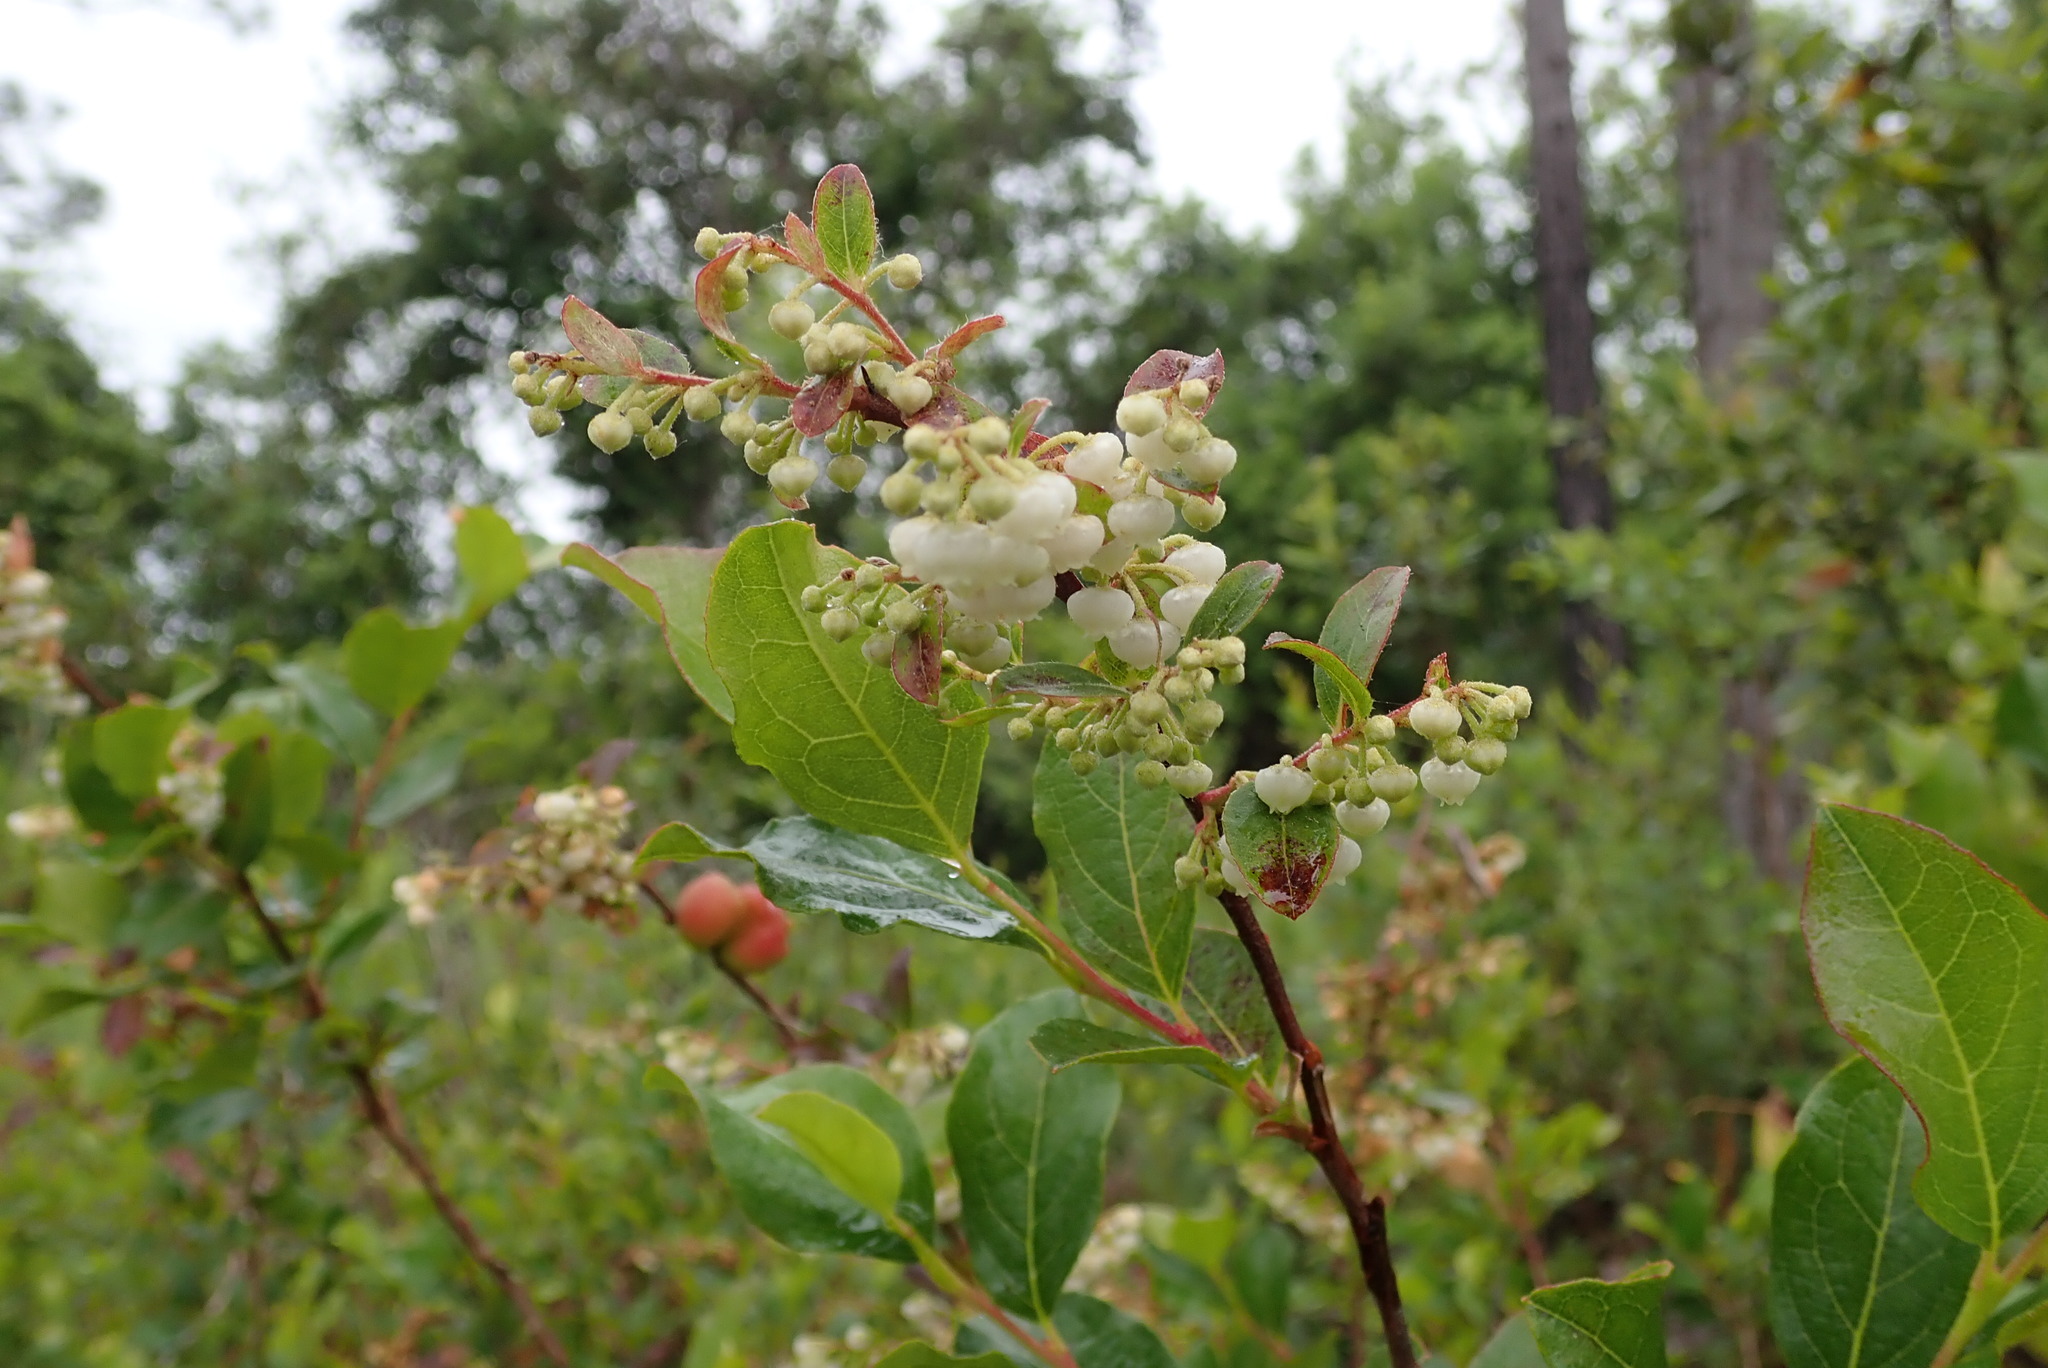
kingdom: Plantae
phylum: Tracheophyta
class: Magnoliopsida
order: Ericales
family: Ericaceae
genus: Lyonia
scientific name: Lyonia ligustrina
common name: Maleberry
